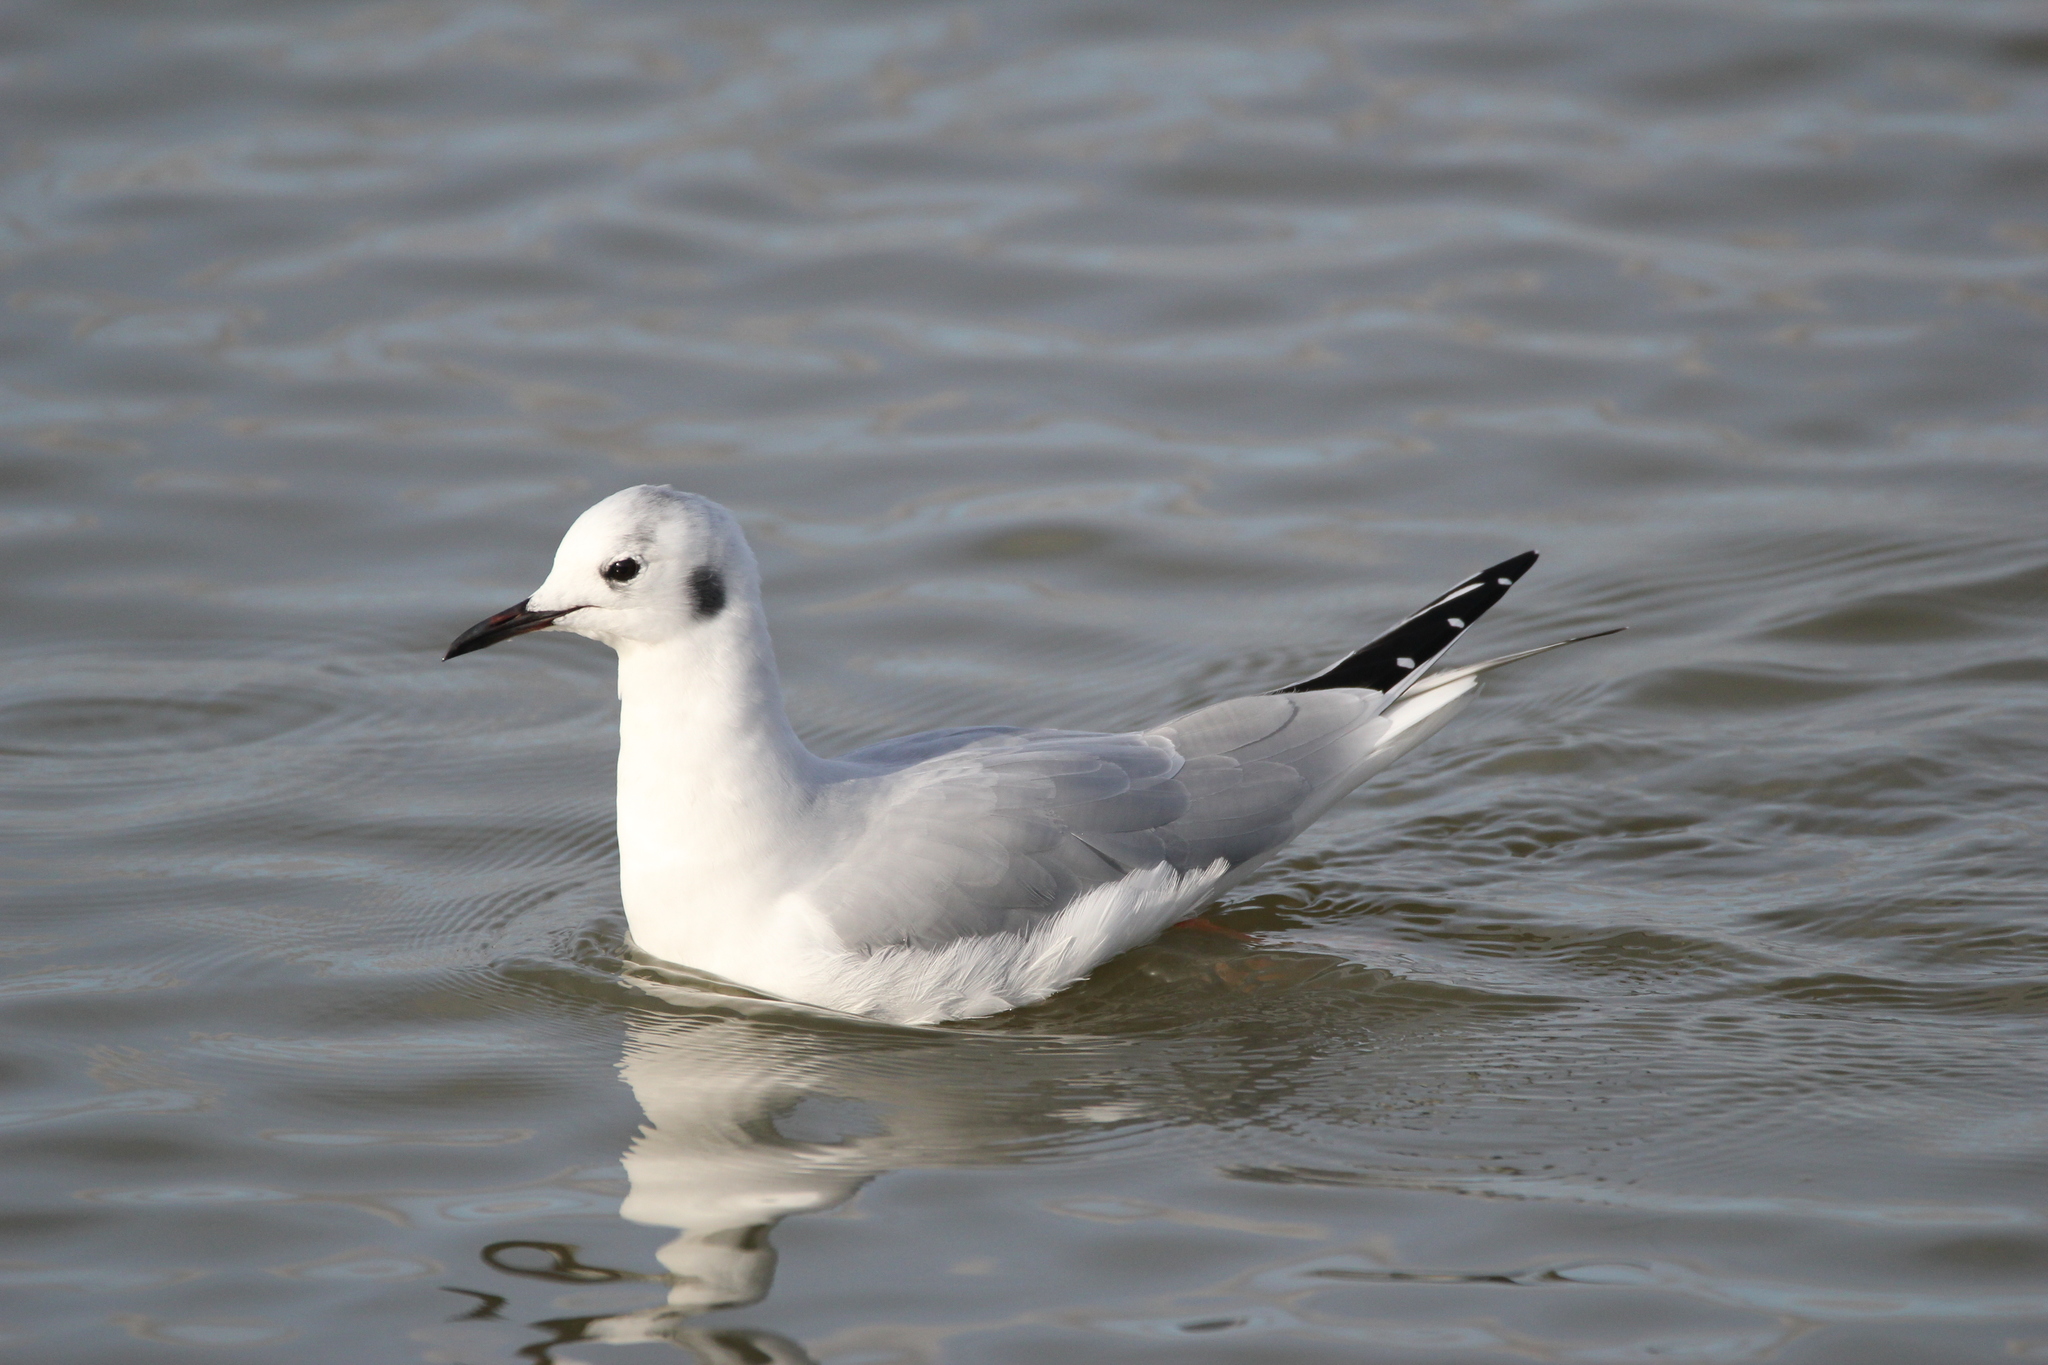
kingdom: Animalia
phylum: Chordata
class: Aves
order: Charadriiformes
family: Laridae
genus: Chroicocephalus
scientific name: Chroicocephalus philadelphia
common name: Bonaparte's gull
